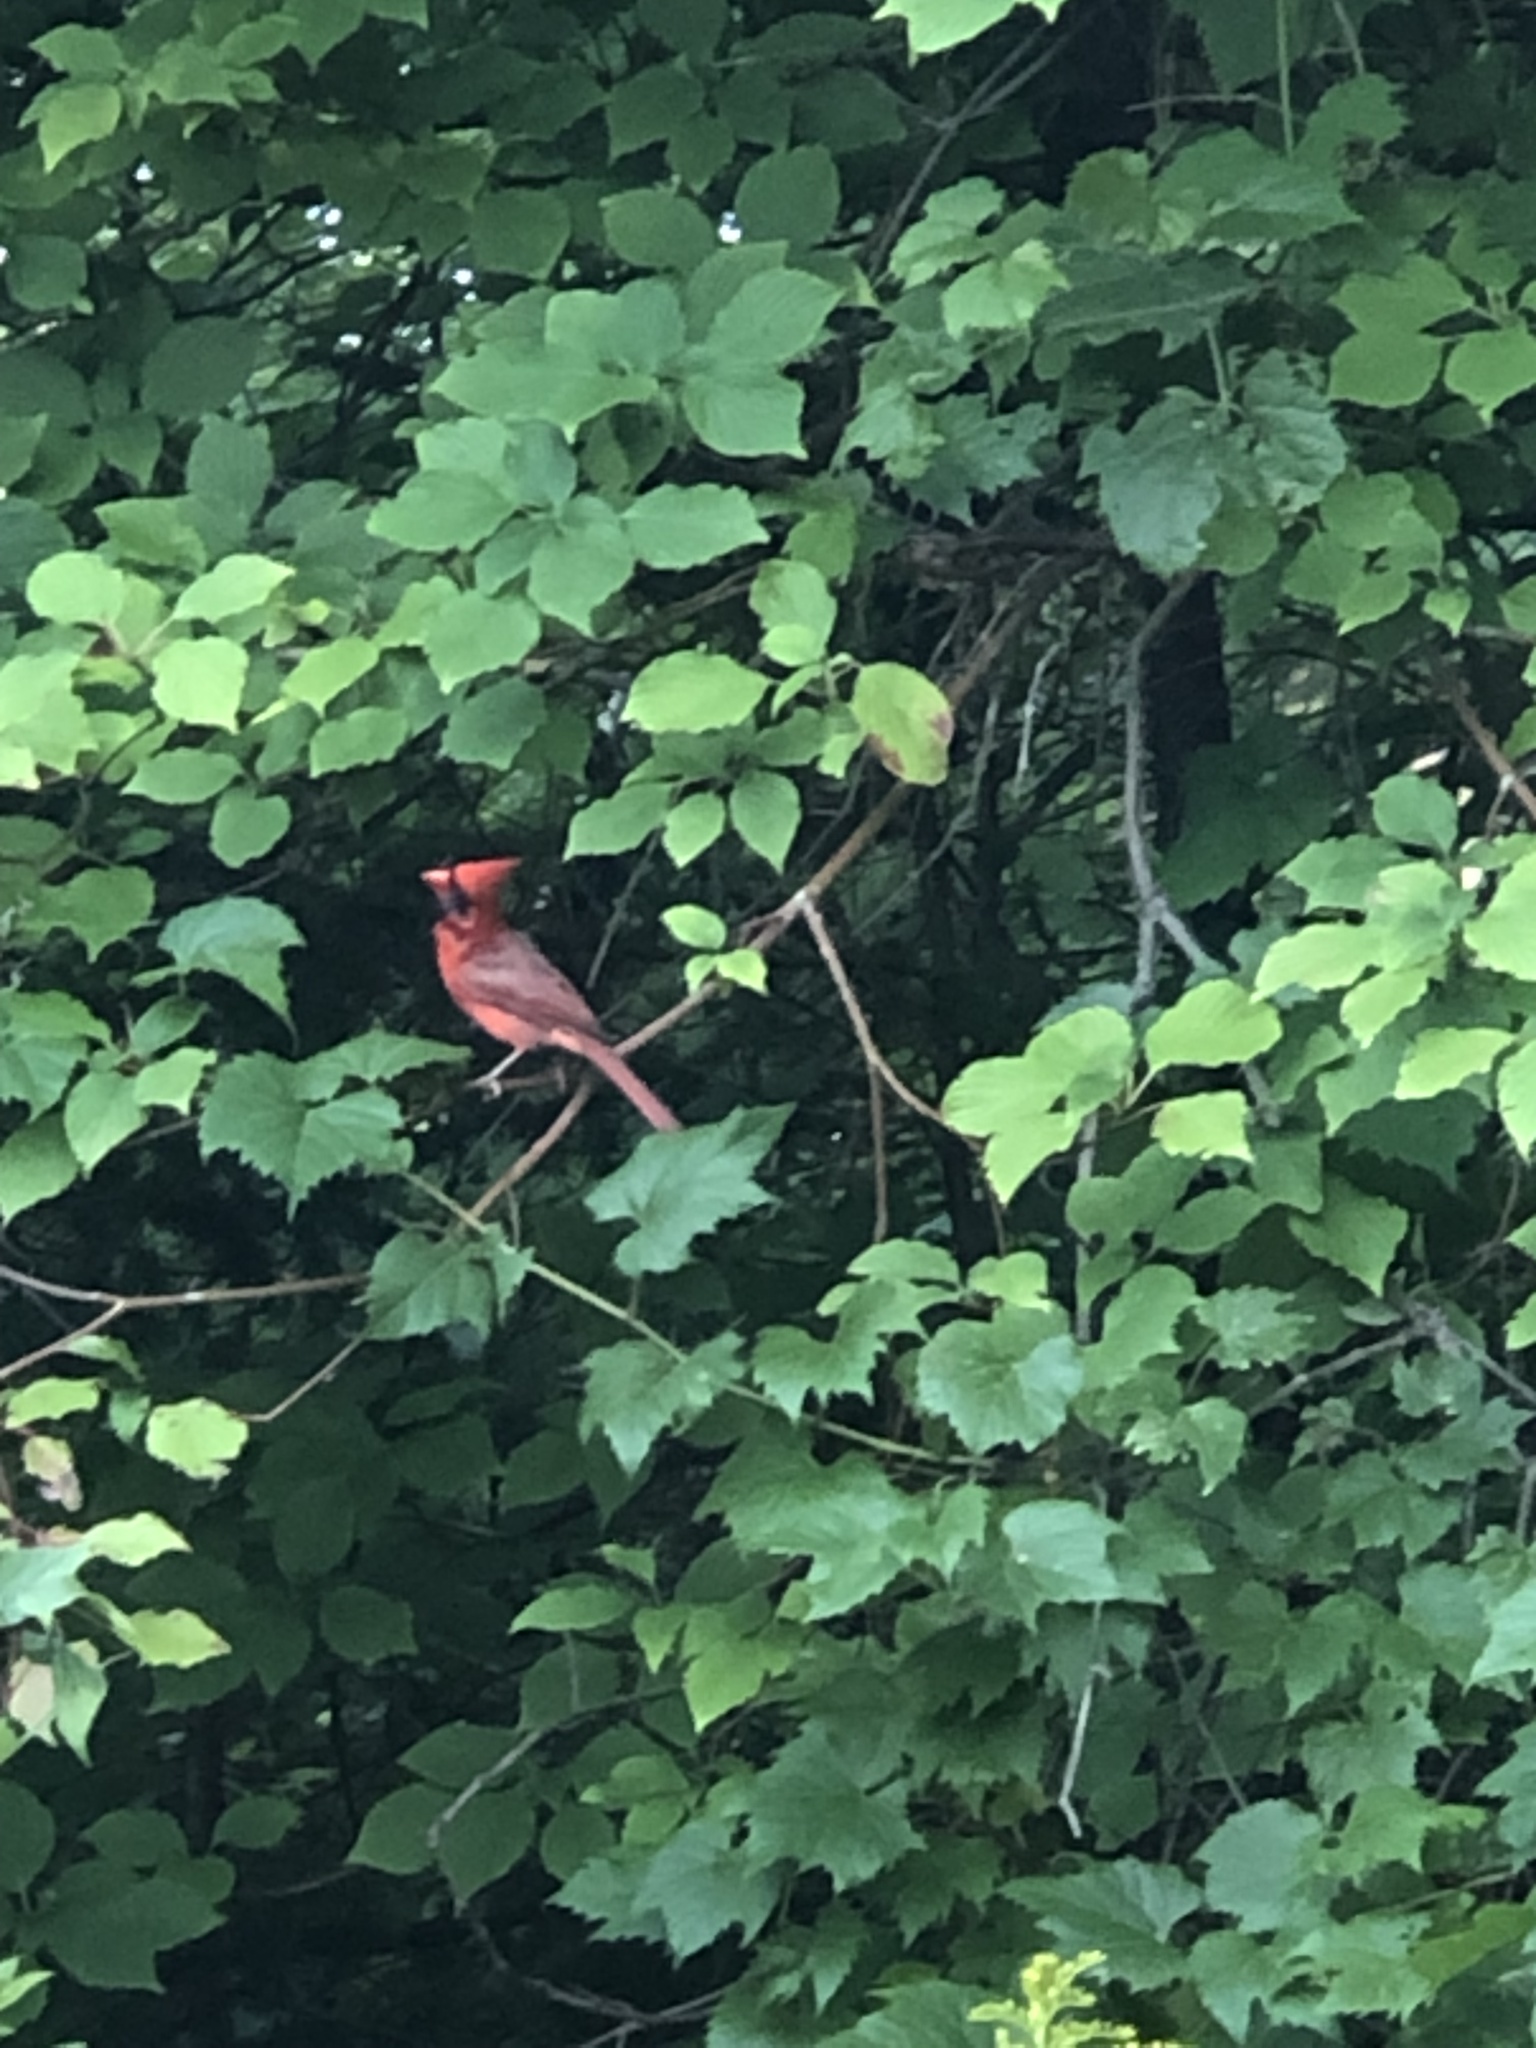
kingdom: Animalia
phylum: Chordata
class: Aves
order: Passeriformes
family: Cardinalidae
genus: Cardinalis
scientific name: Cardinalis cardinalis
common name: Northern cardinal
